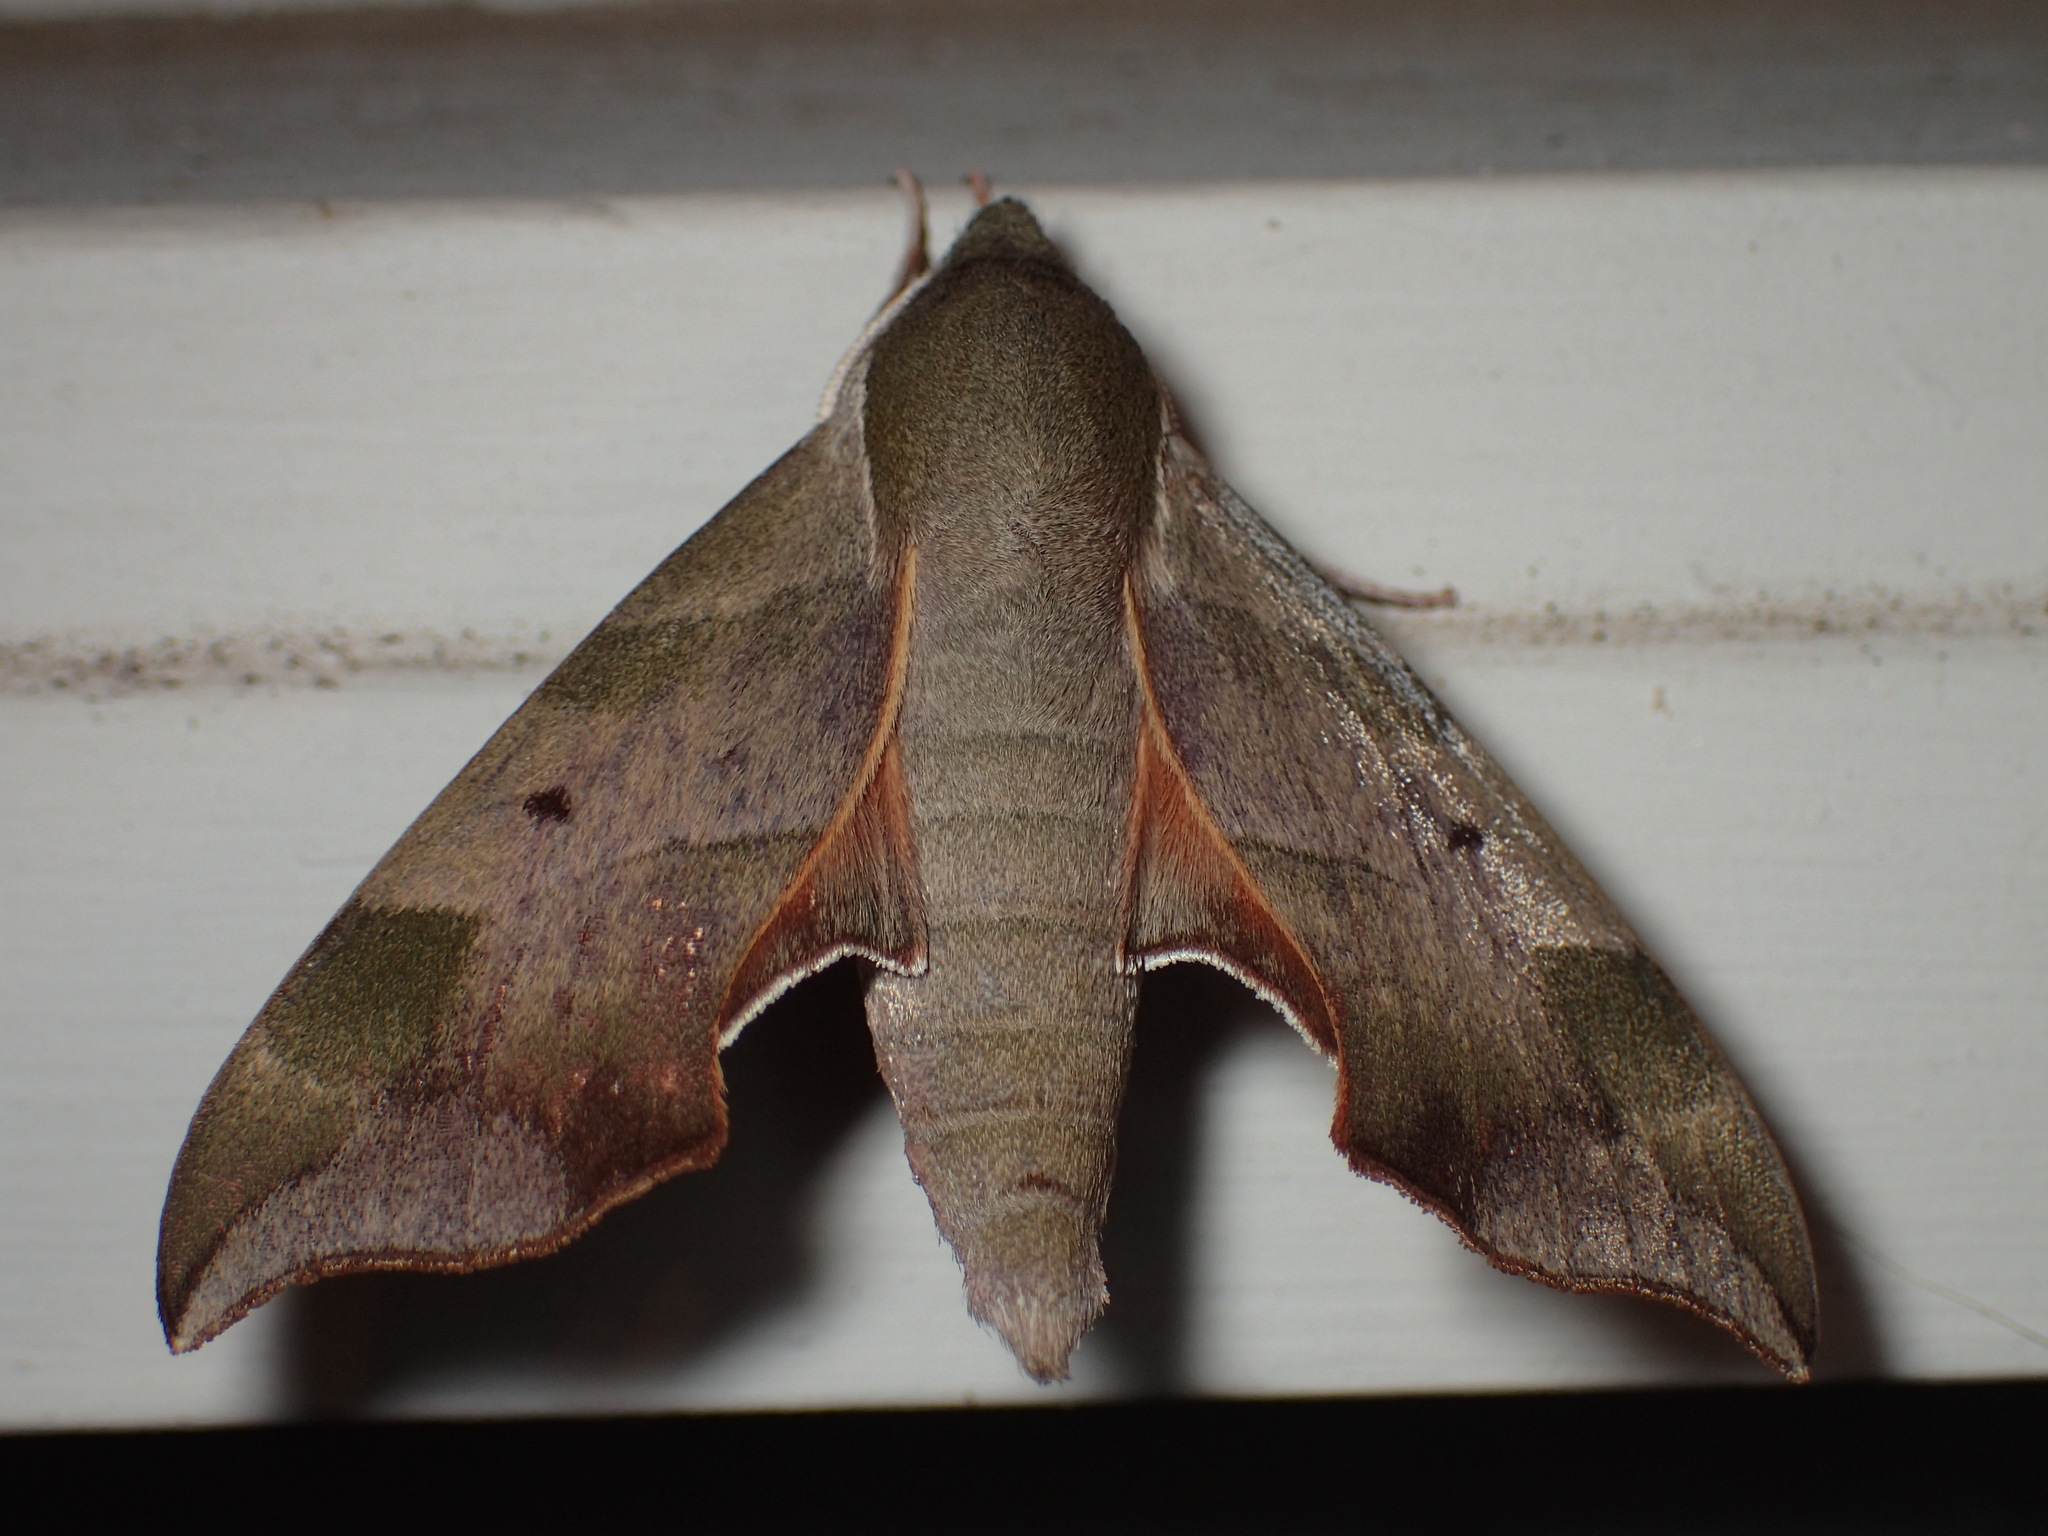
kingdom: Animalia
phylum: Arthropoda
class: Insecta
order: Lepidoptera
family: Sphingidae
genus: Darapsa
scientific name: Darapsa myron
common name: Hog sphinx
